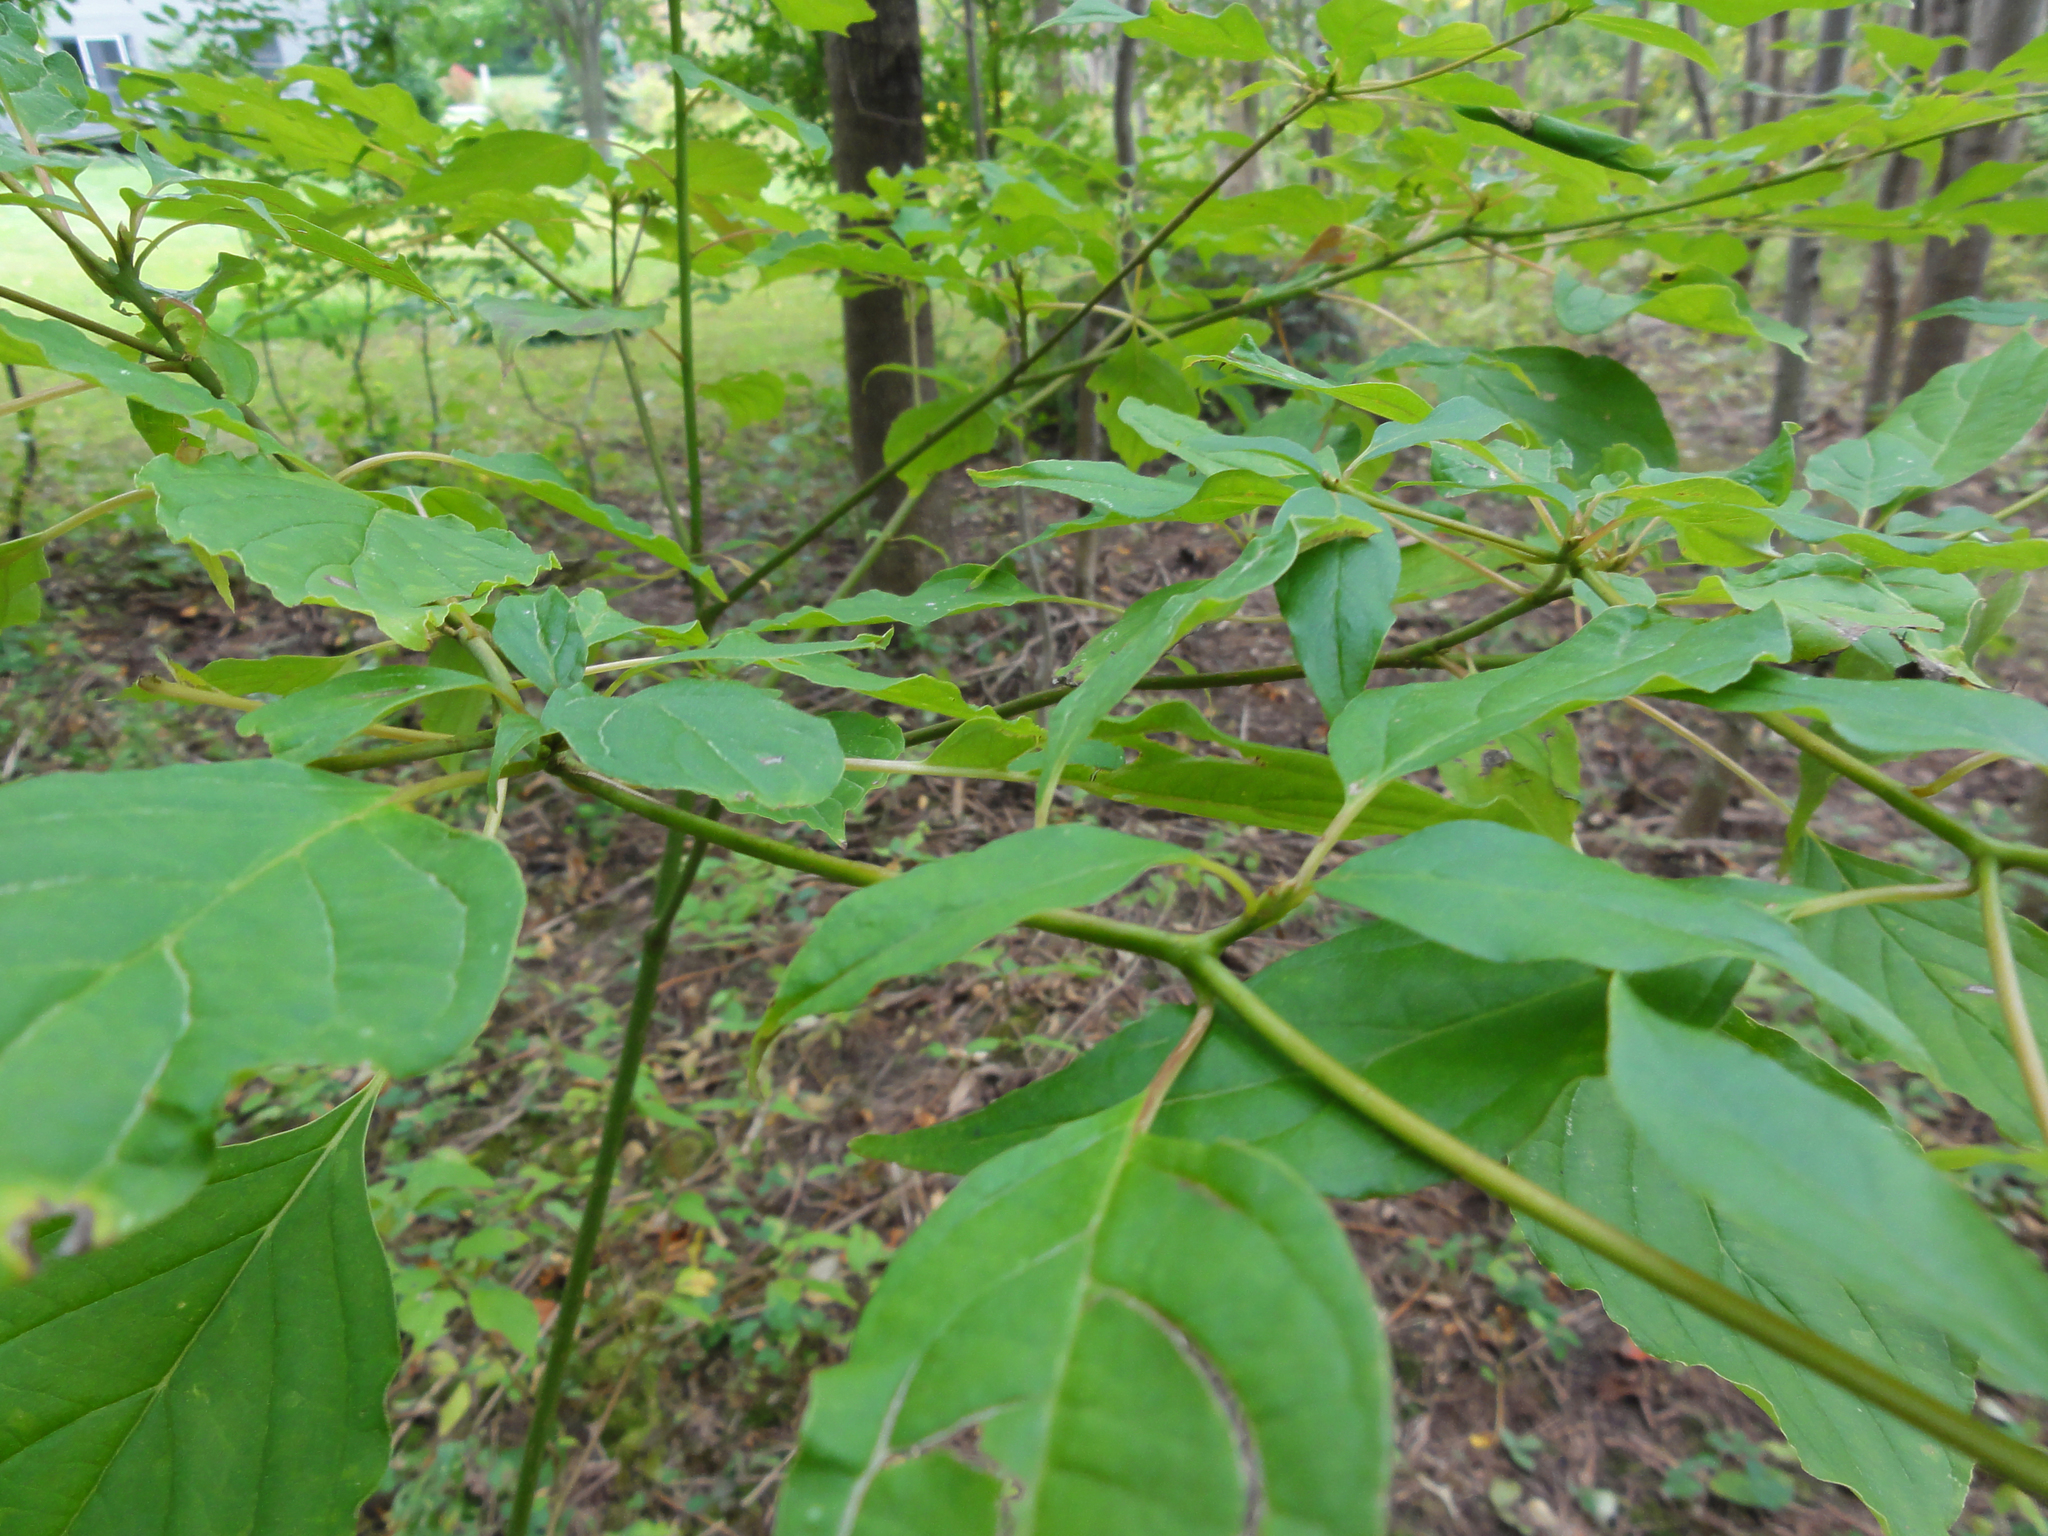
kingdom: Plantae
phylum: Tracheophyta
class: Magnoliopsida
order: Cornales
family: Cornaceae
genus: Cornus
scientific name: Cornus alternifolia
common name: Pagoda dogwood
